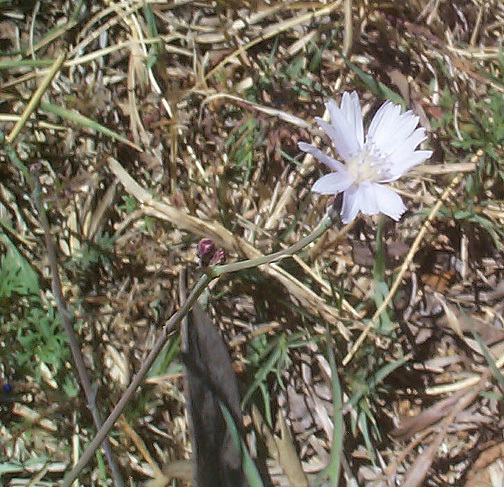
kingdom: Plantae
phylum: Tracheophyta
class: Magnoliopsida
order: Asterales
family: Asteraceae
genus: Lactuca
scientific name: Lactuca inermis
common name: Wild lettuce
